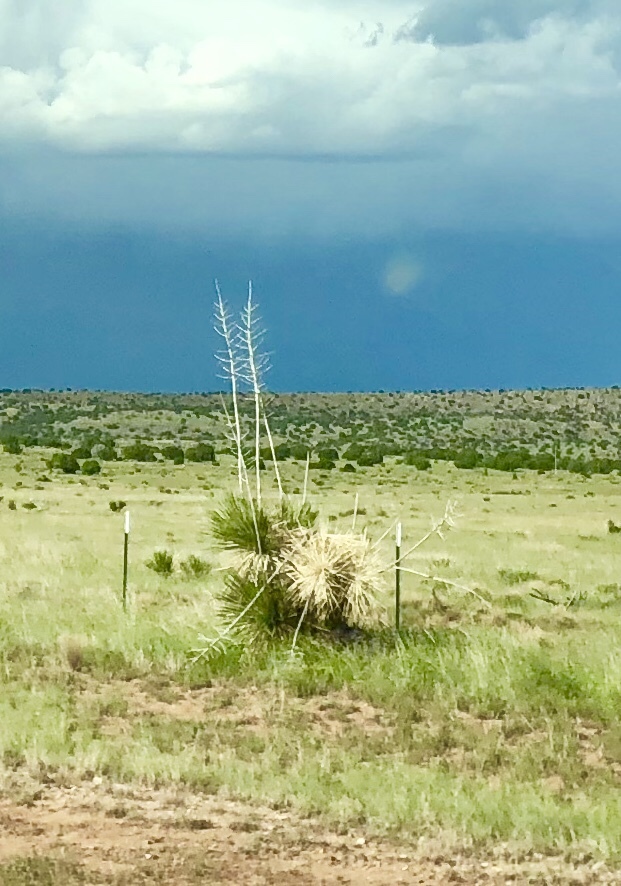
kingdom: Plantae
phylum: Tracheophyta
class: Liliopsida
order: Asparagales
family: Asparagaceae
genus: Yucca
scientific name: Yucca elata
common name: Palmella
